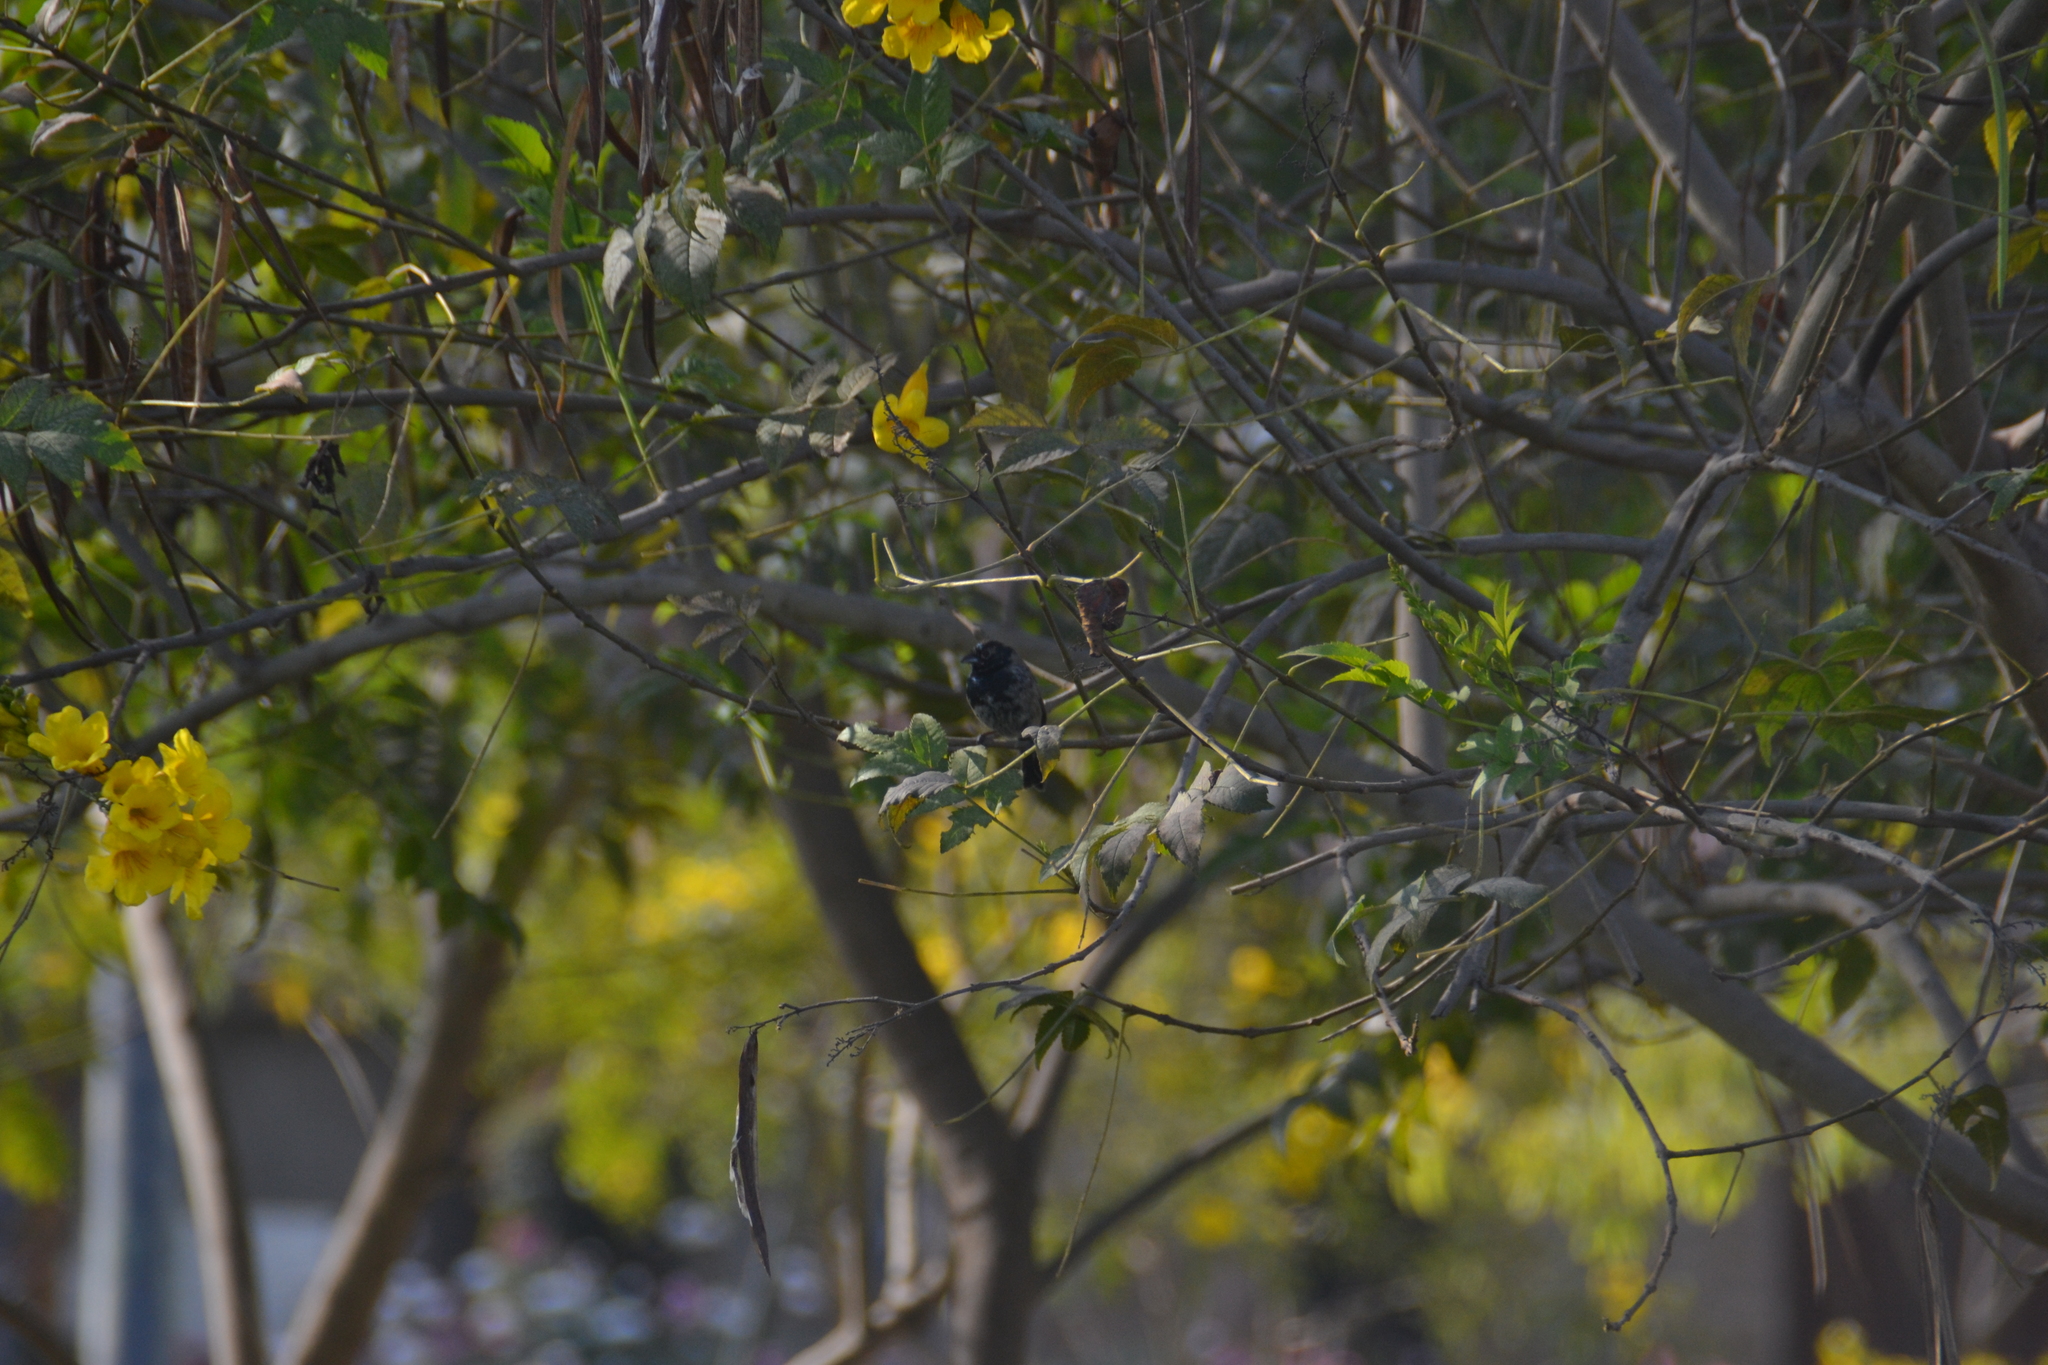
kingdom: Animalia
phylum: Chordata
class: Aves
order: Passeriformes
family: Thraupidae
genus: Volatinia
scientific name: Volatinia jacarina
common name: Blue-black grassquit
